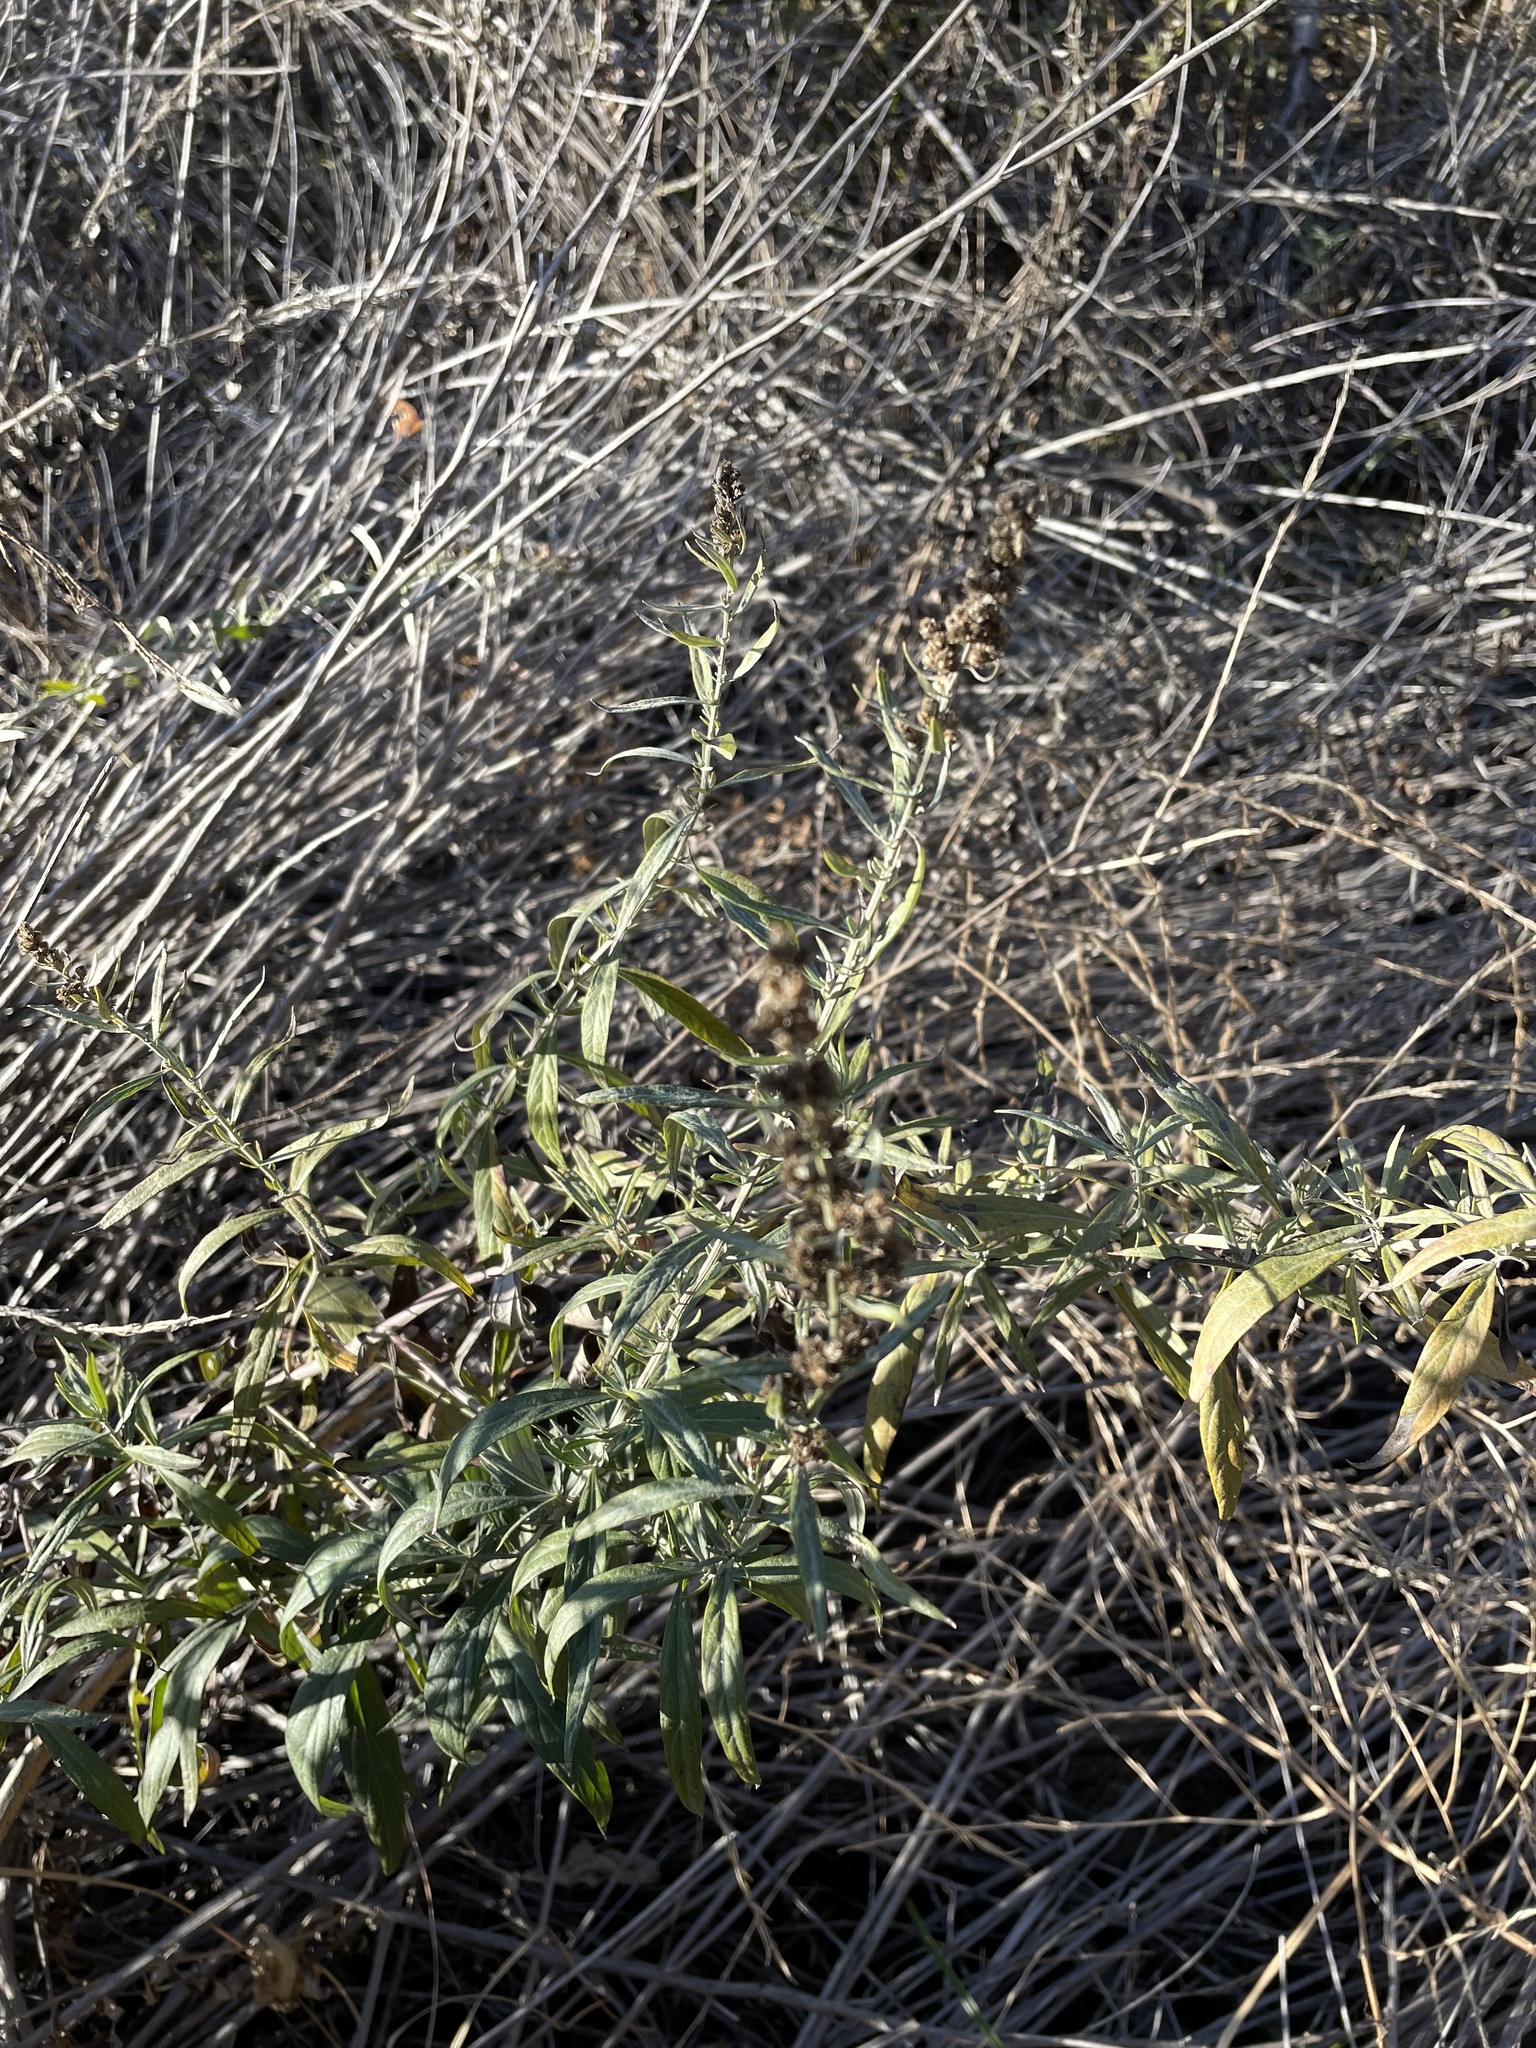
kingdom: Plantae
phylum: Tracheophyta
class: Magnoliopsida
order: Asterales
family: Asteraceae
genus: Artemisia
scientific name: Artemisia douglasiana
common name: Northwest mugwort
